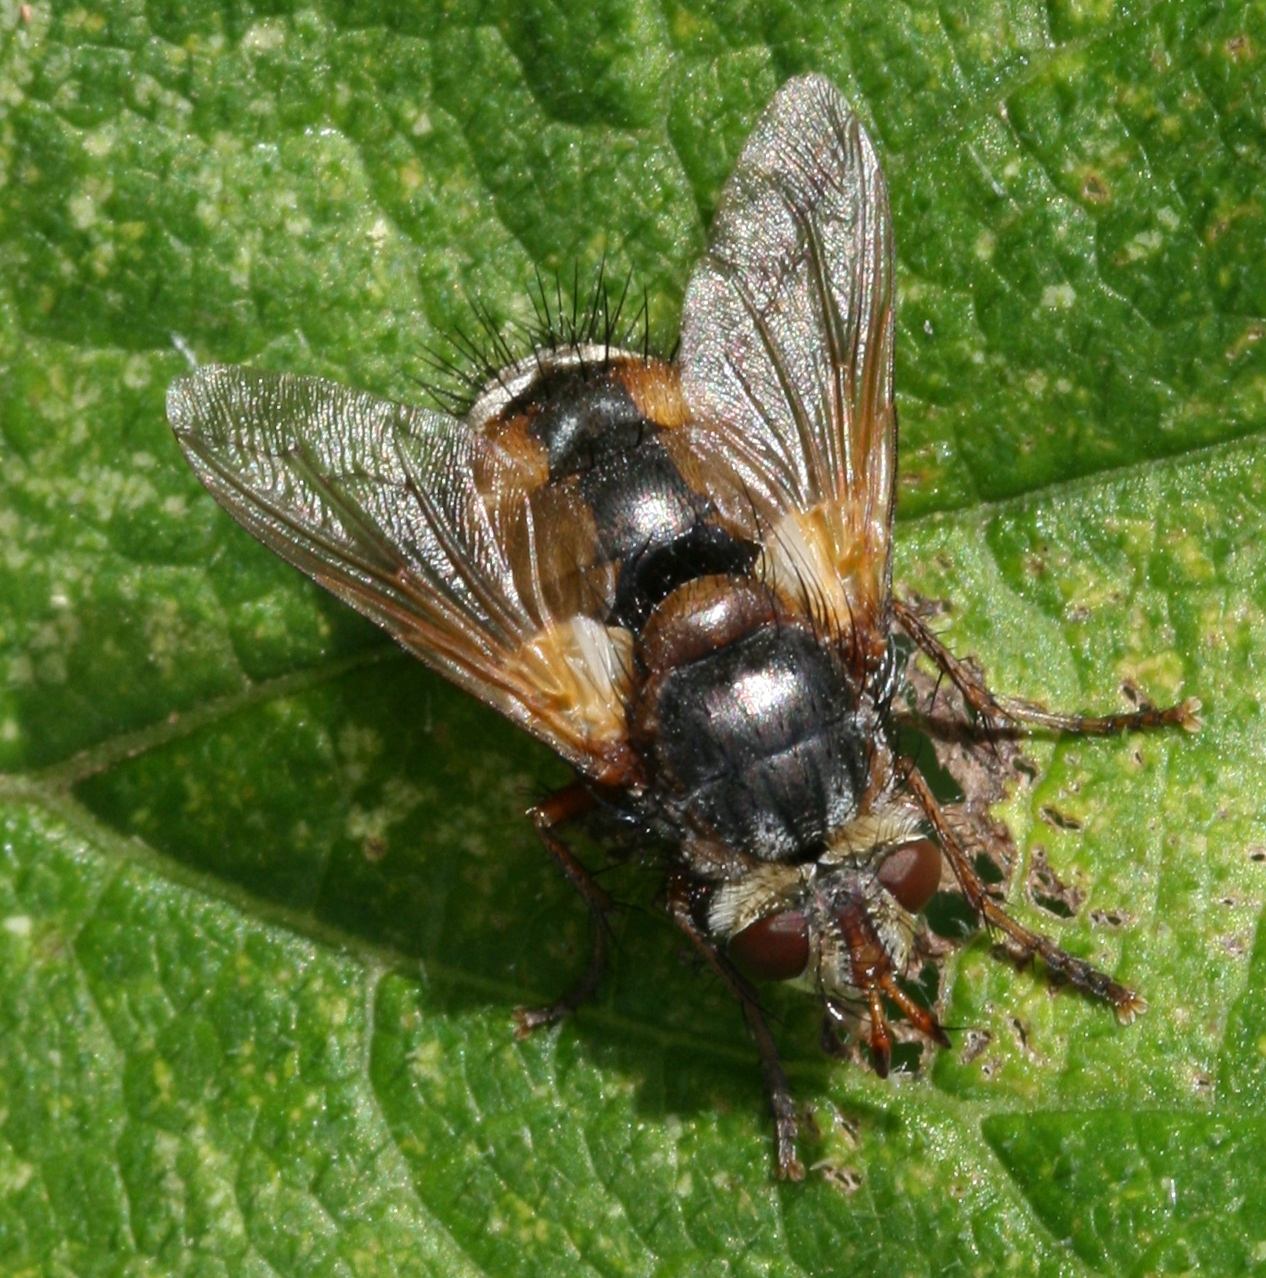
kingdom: Animalia
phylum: Arthropoda
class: Insecta
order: Diptera
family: Tachinidae
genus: Tachina
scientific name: Tachina fera
